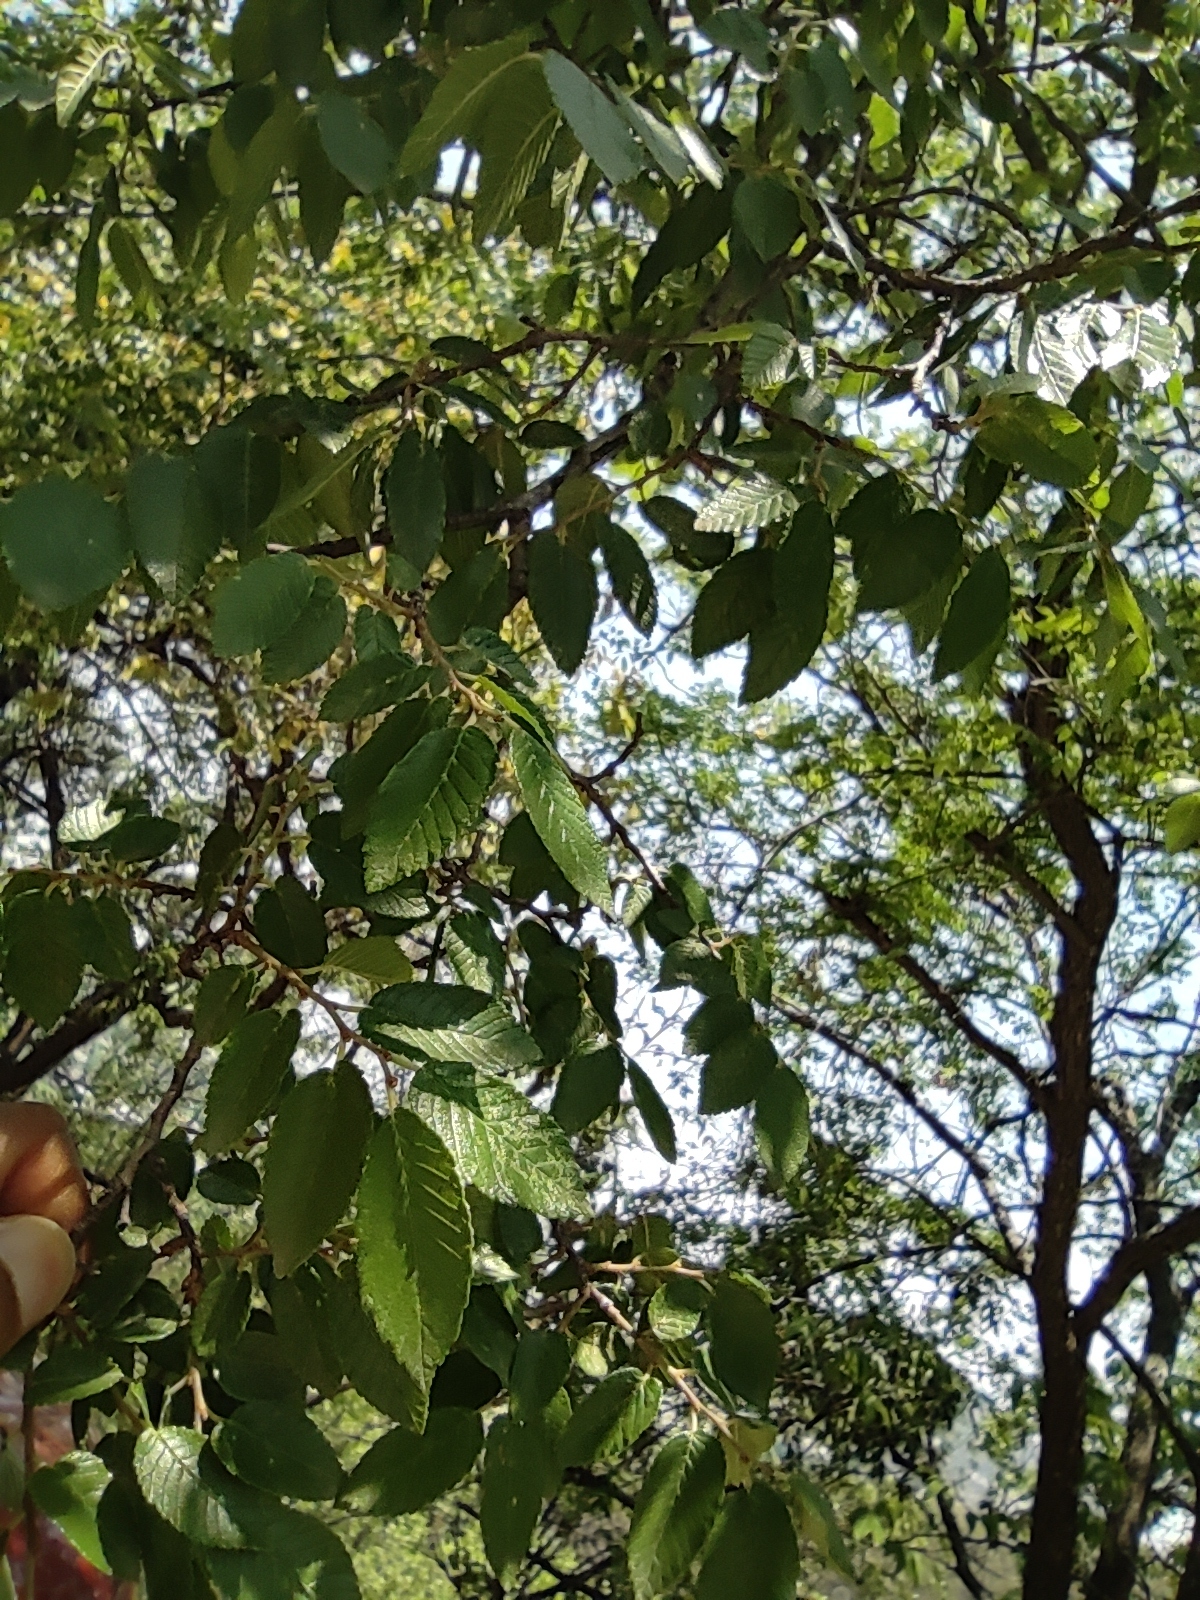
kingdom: Plantae
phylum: Tracheophyta
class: Magnoliopsida
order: Rosales
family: Ulmaceae
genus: Ulmus
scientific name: Ulmus crassifolia
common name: Basket elm
